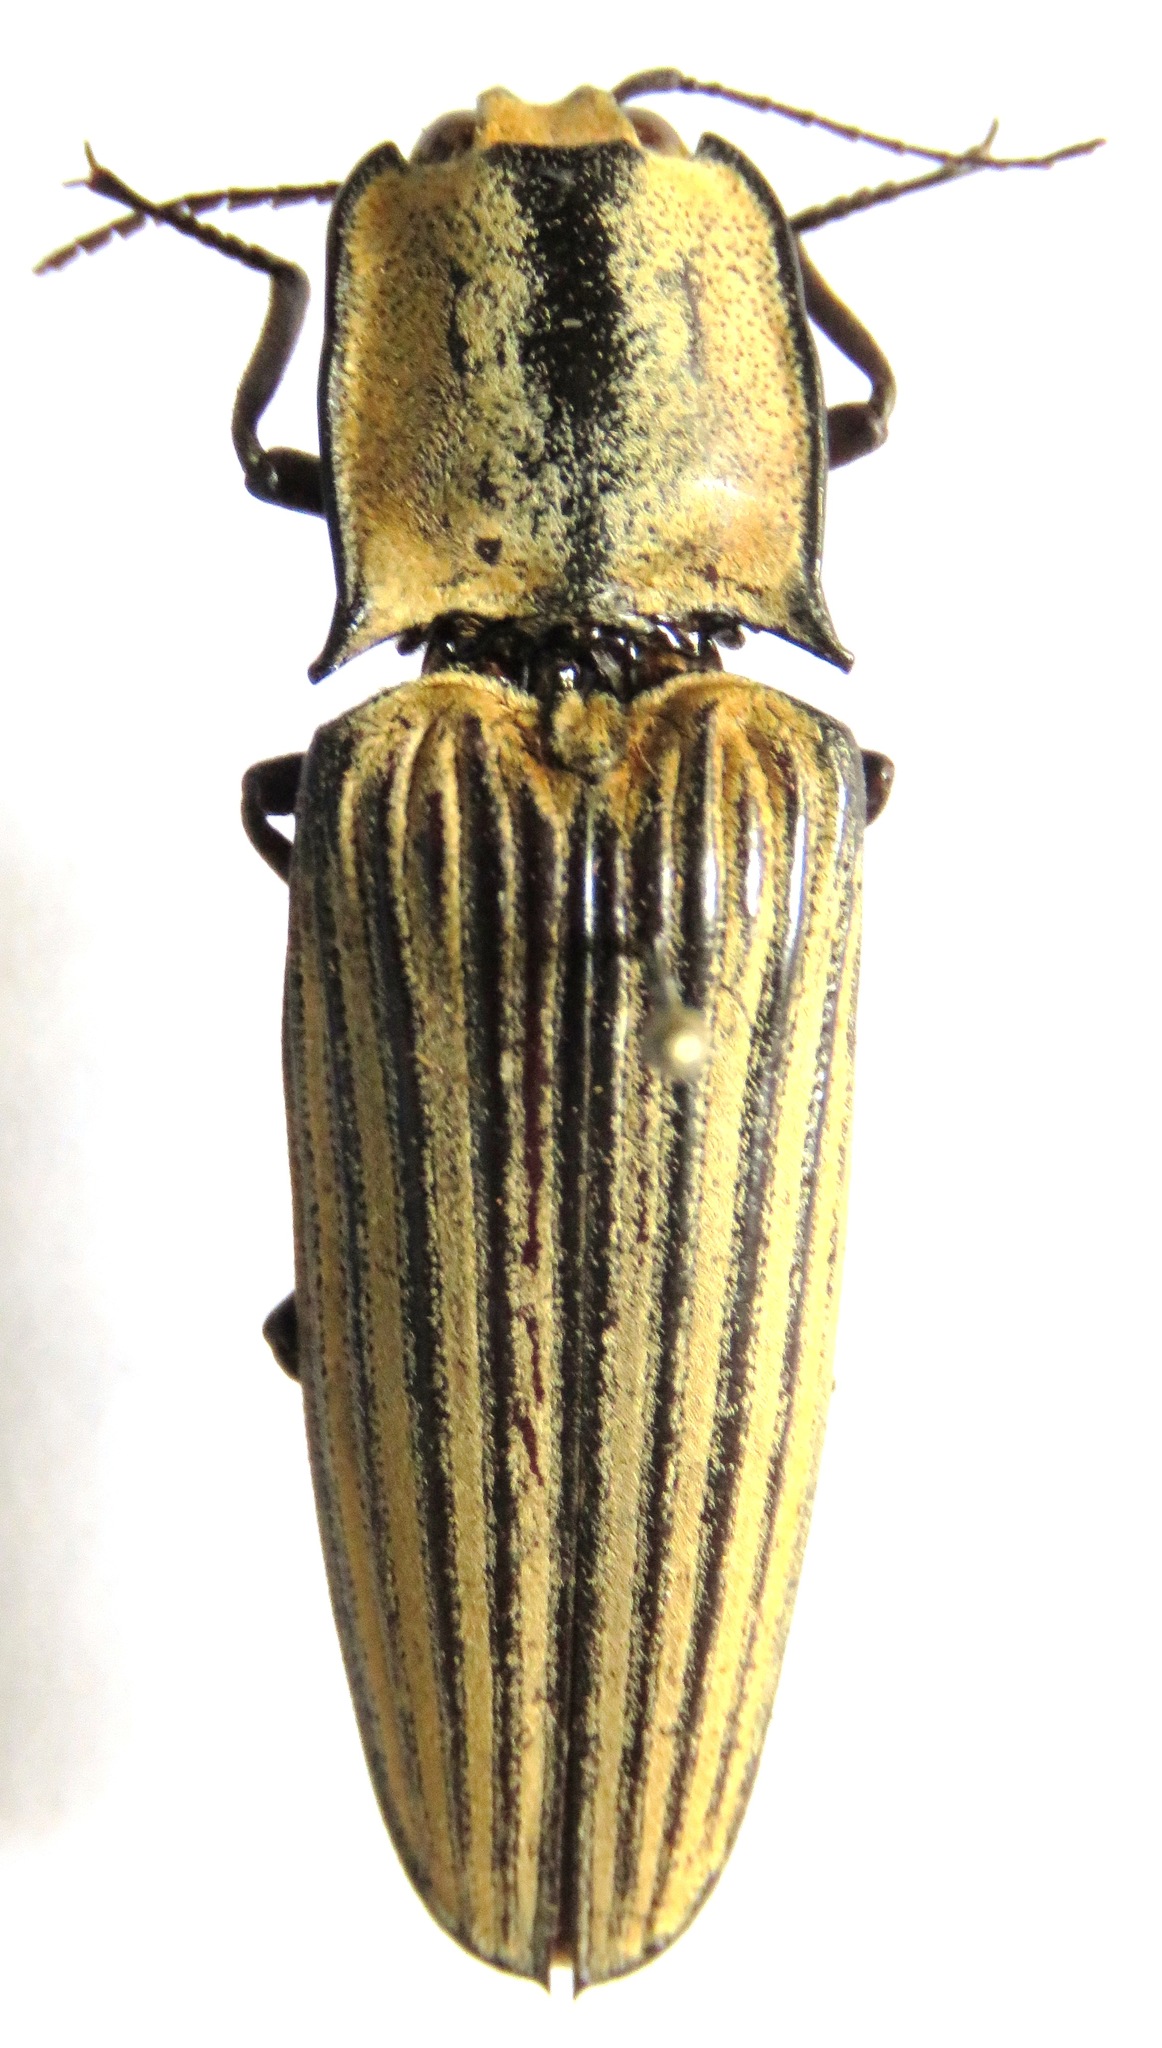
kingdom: Animalia
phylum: Arthropoda
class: Insecta
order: Coleoptera
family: Elateridae
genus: Alaus
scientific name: Alaus
